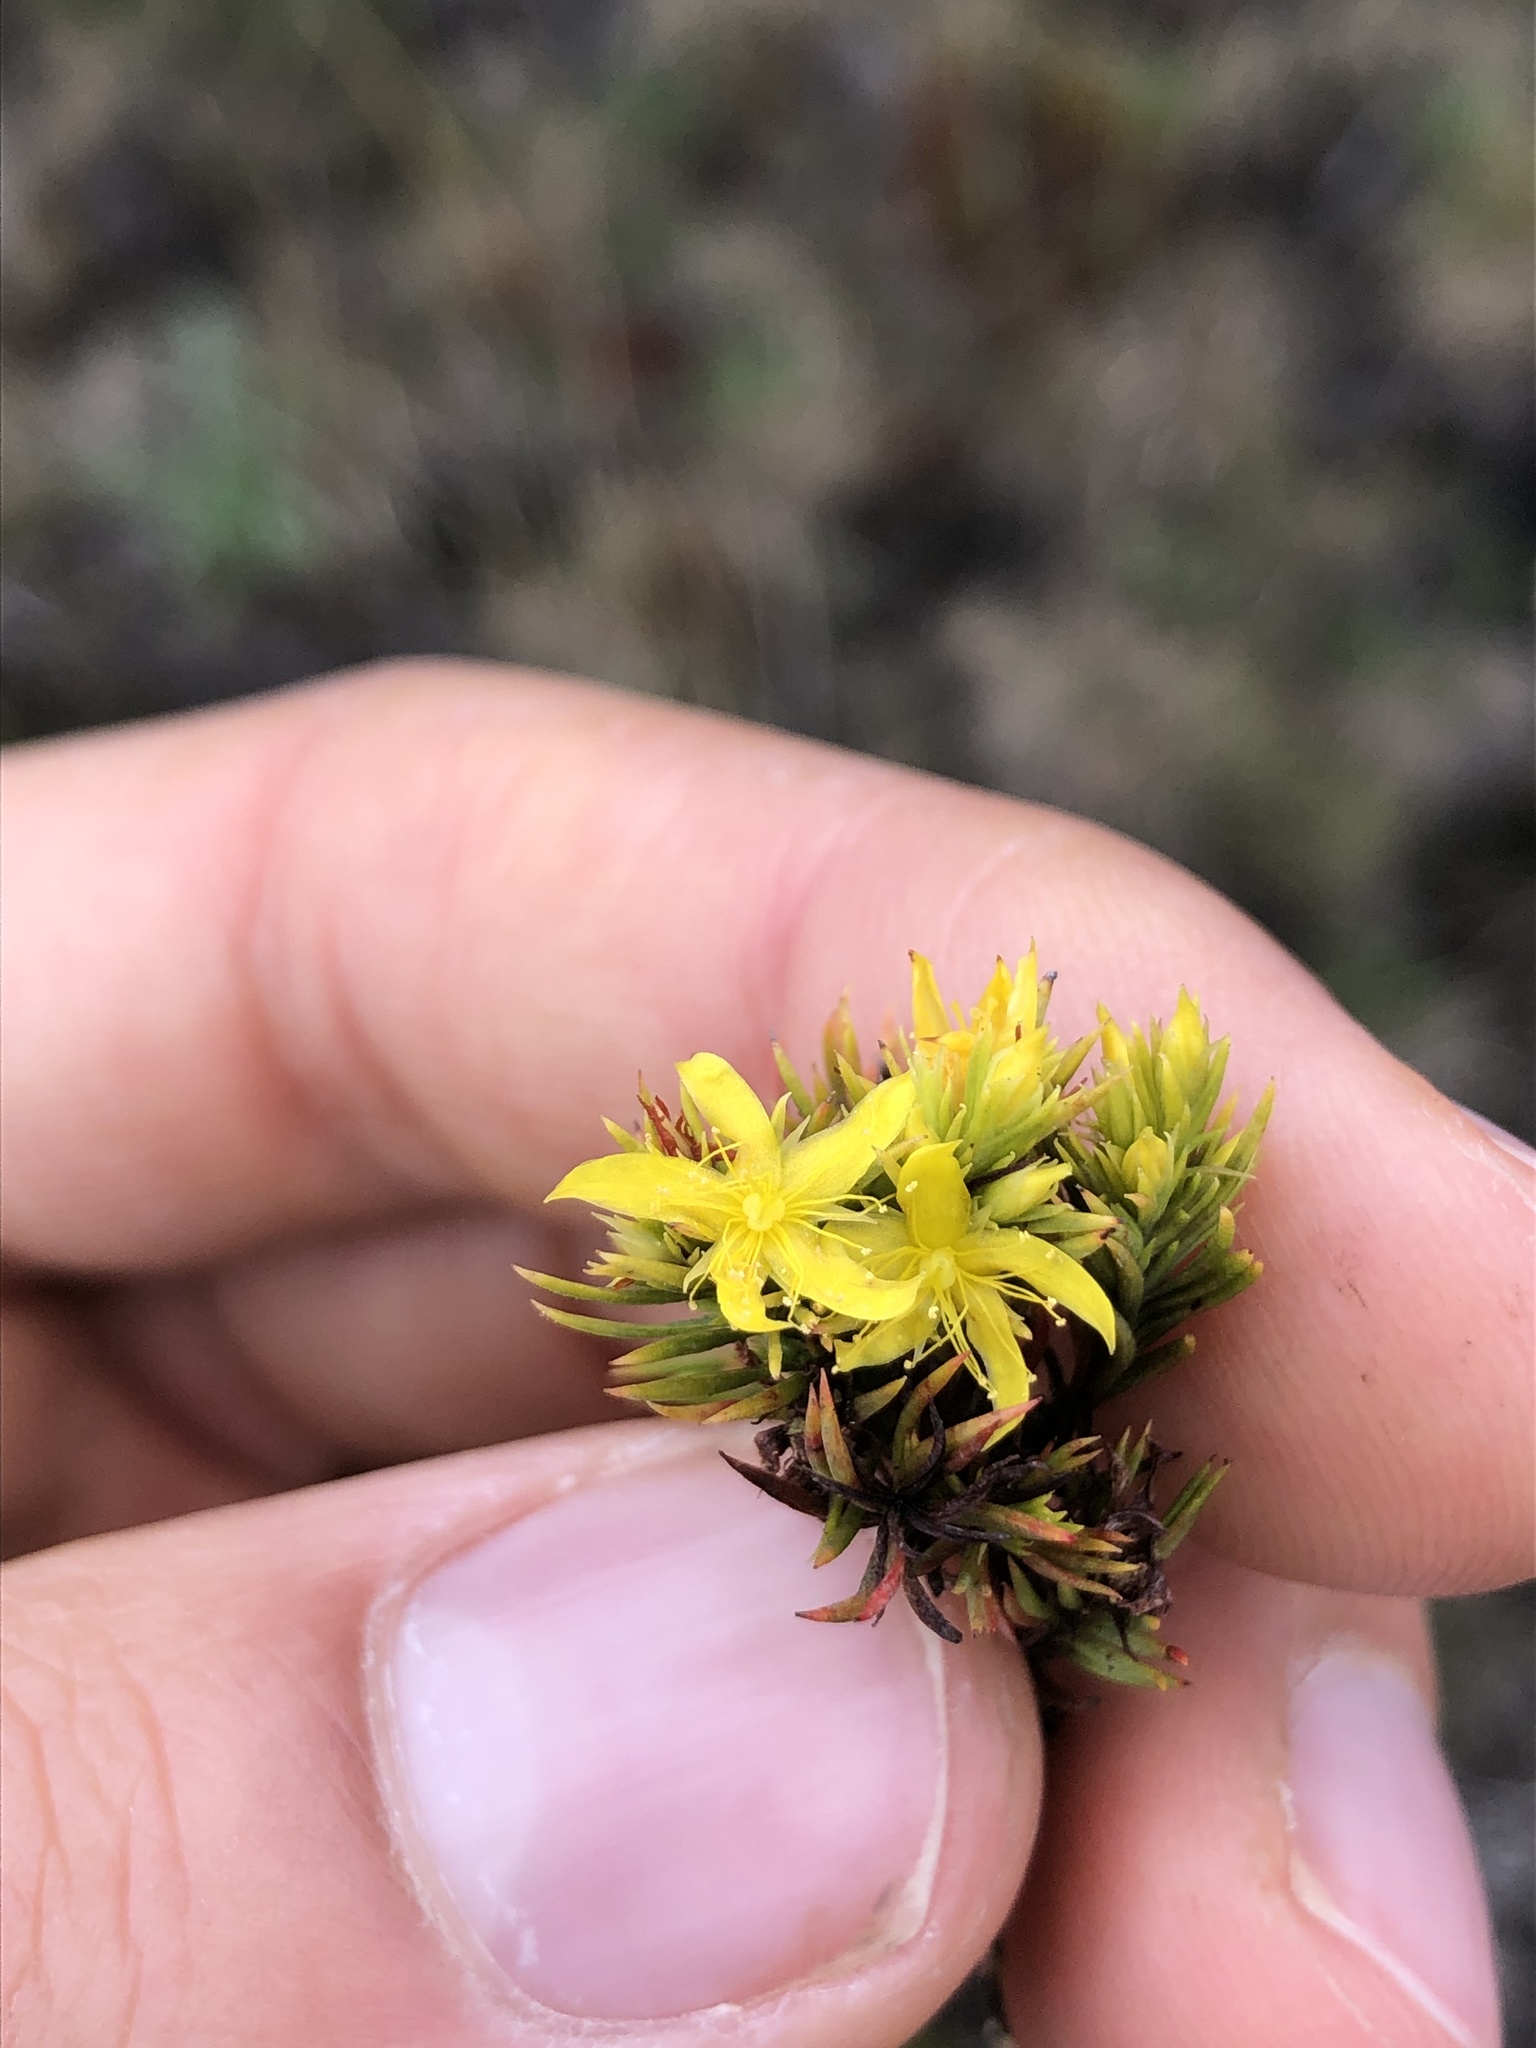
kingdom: Plantae
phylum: Tracheophyta
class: Magnoliopsida
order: Malpighiales
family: Hypericaceae
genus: Hypericum
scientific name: Hypericum juniperinum
